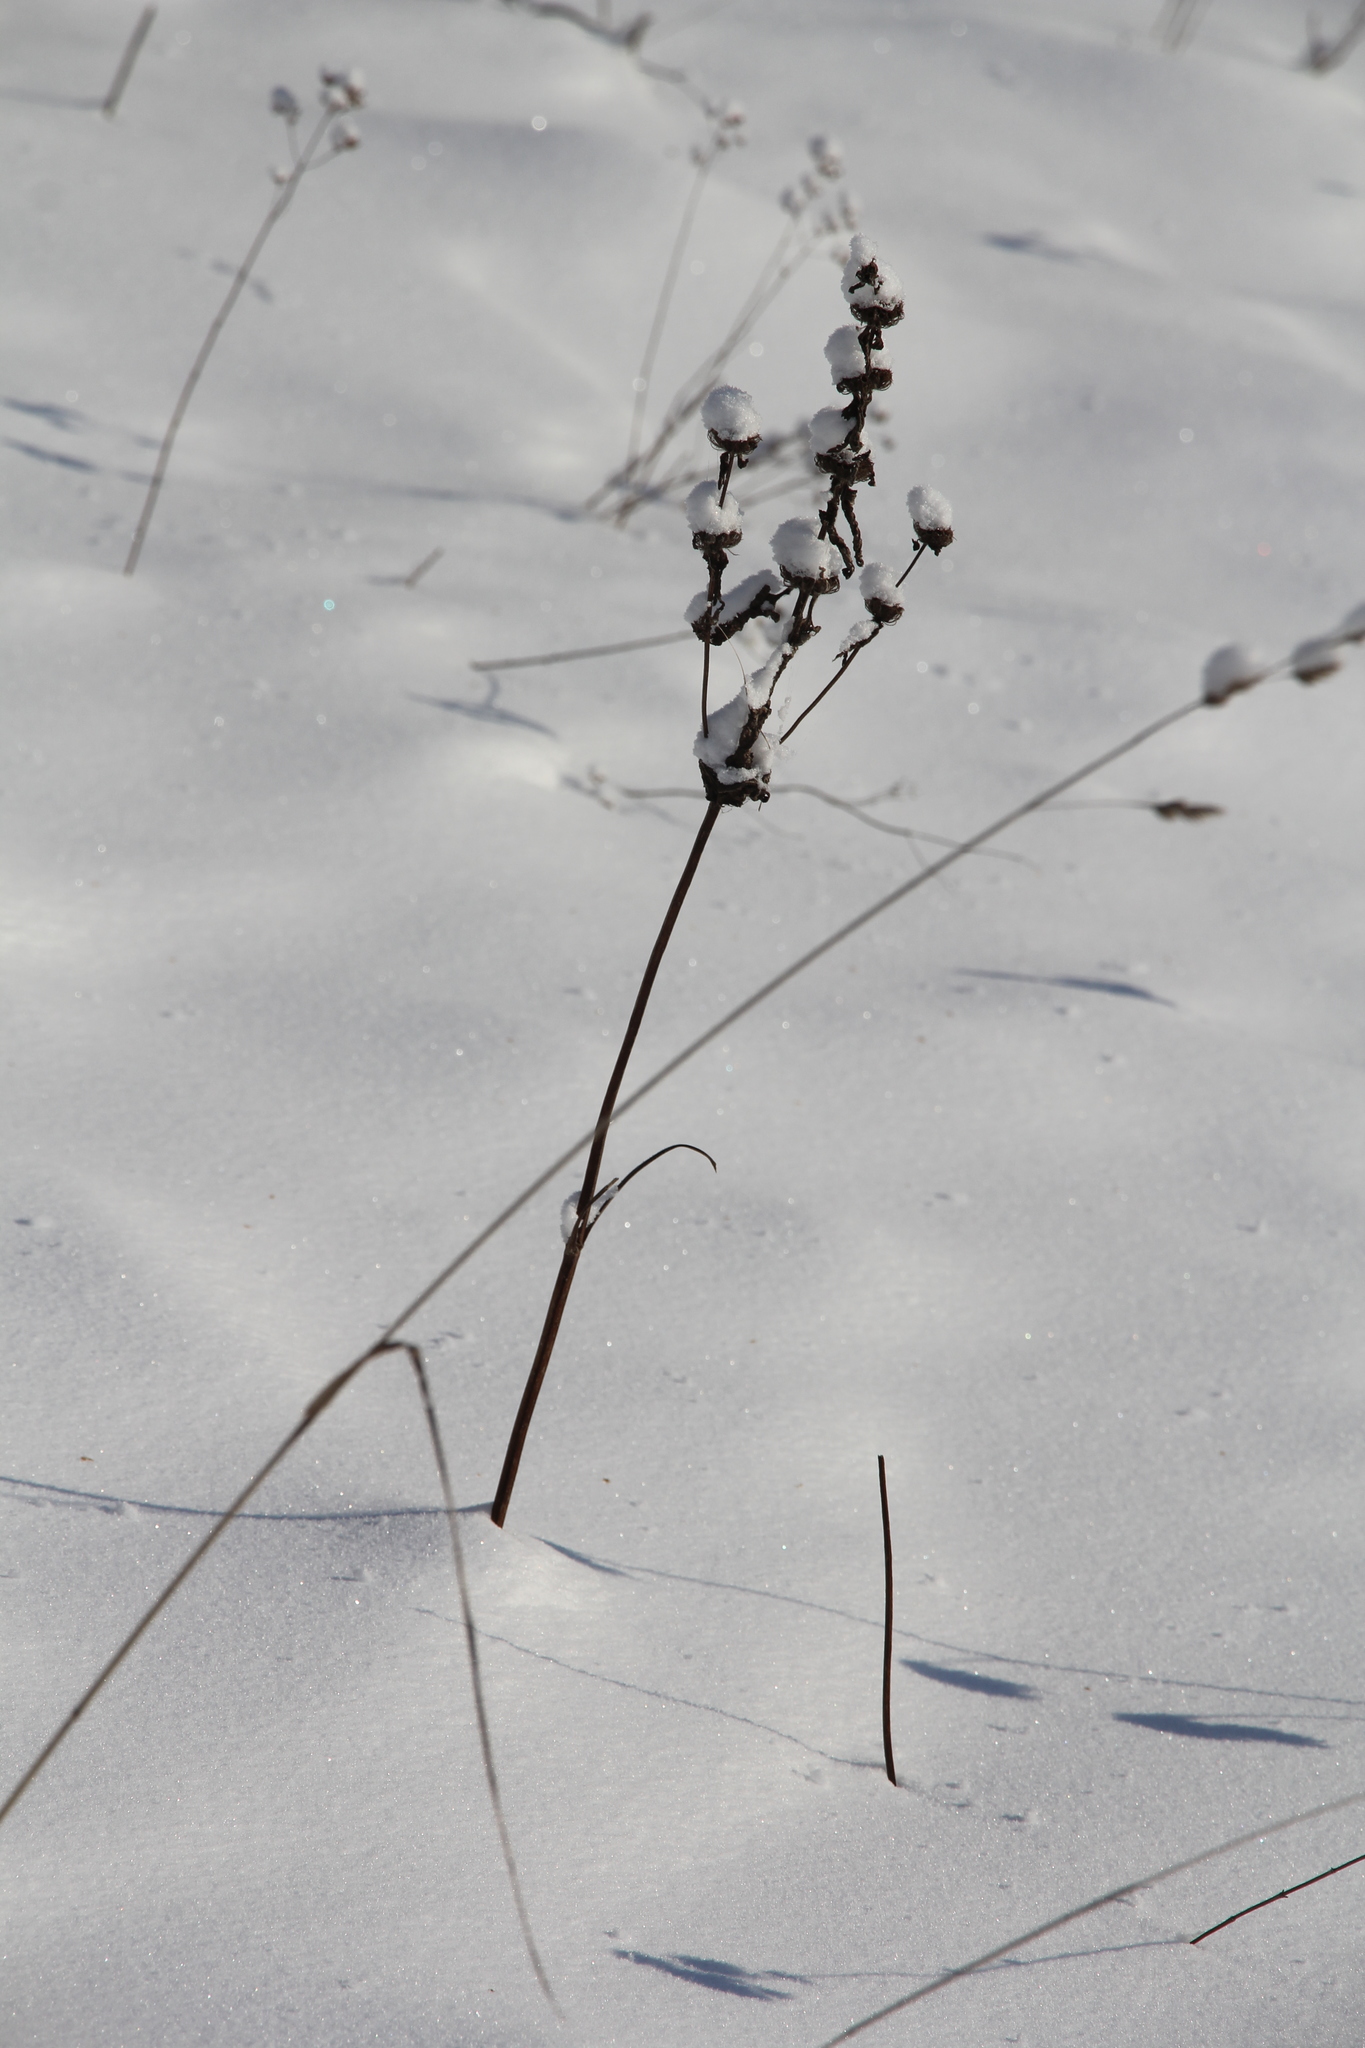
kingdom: Plantae
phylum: Tracheophyta
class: Magnoliopsida
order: Lamiales
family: Lamiaceae
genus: Phlomoides
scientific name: Phlomoides tuberosa
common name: Tuberous jerusalem sage
